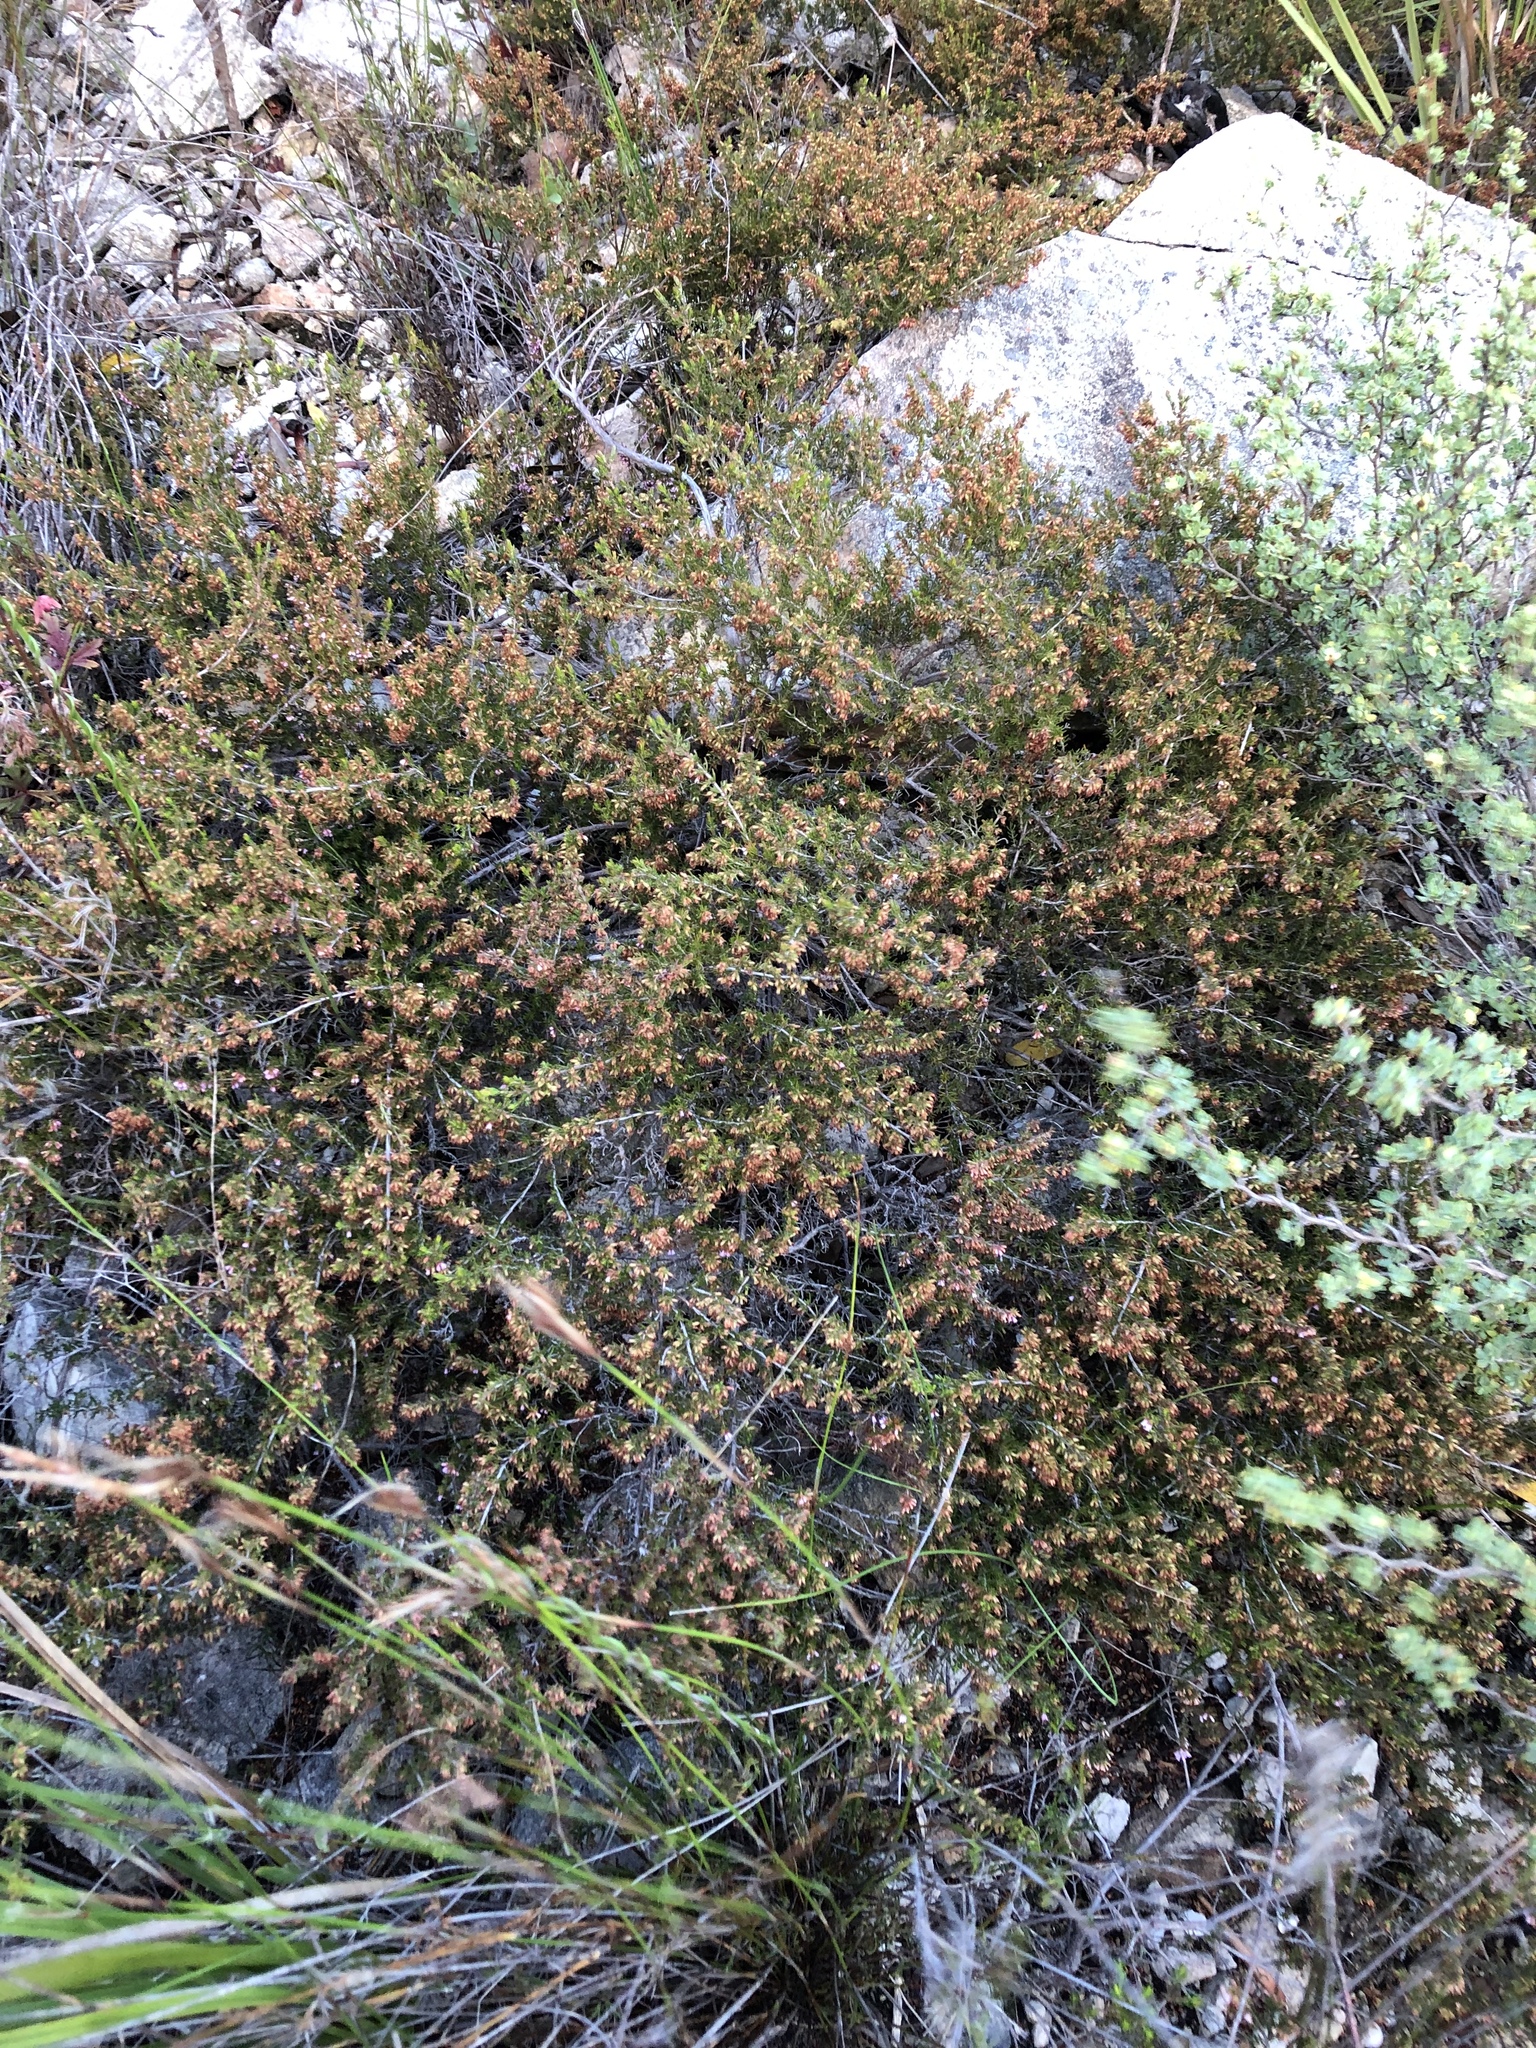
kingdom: Plantae
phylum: Tracheophyta
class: Magnoliopsida
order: Ericales
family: Ericaceae
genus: Erica
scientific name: Erica anguliger
